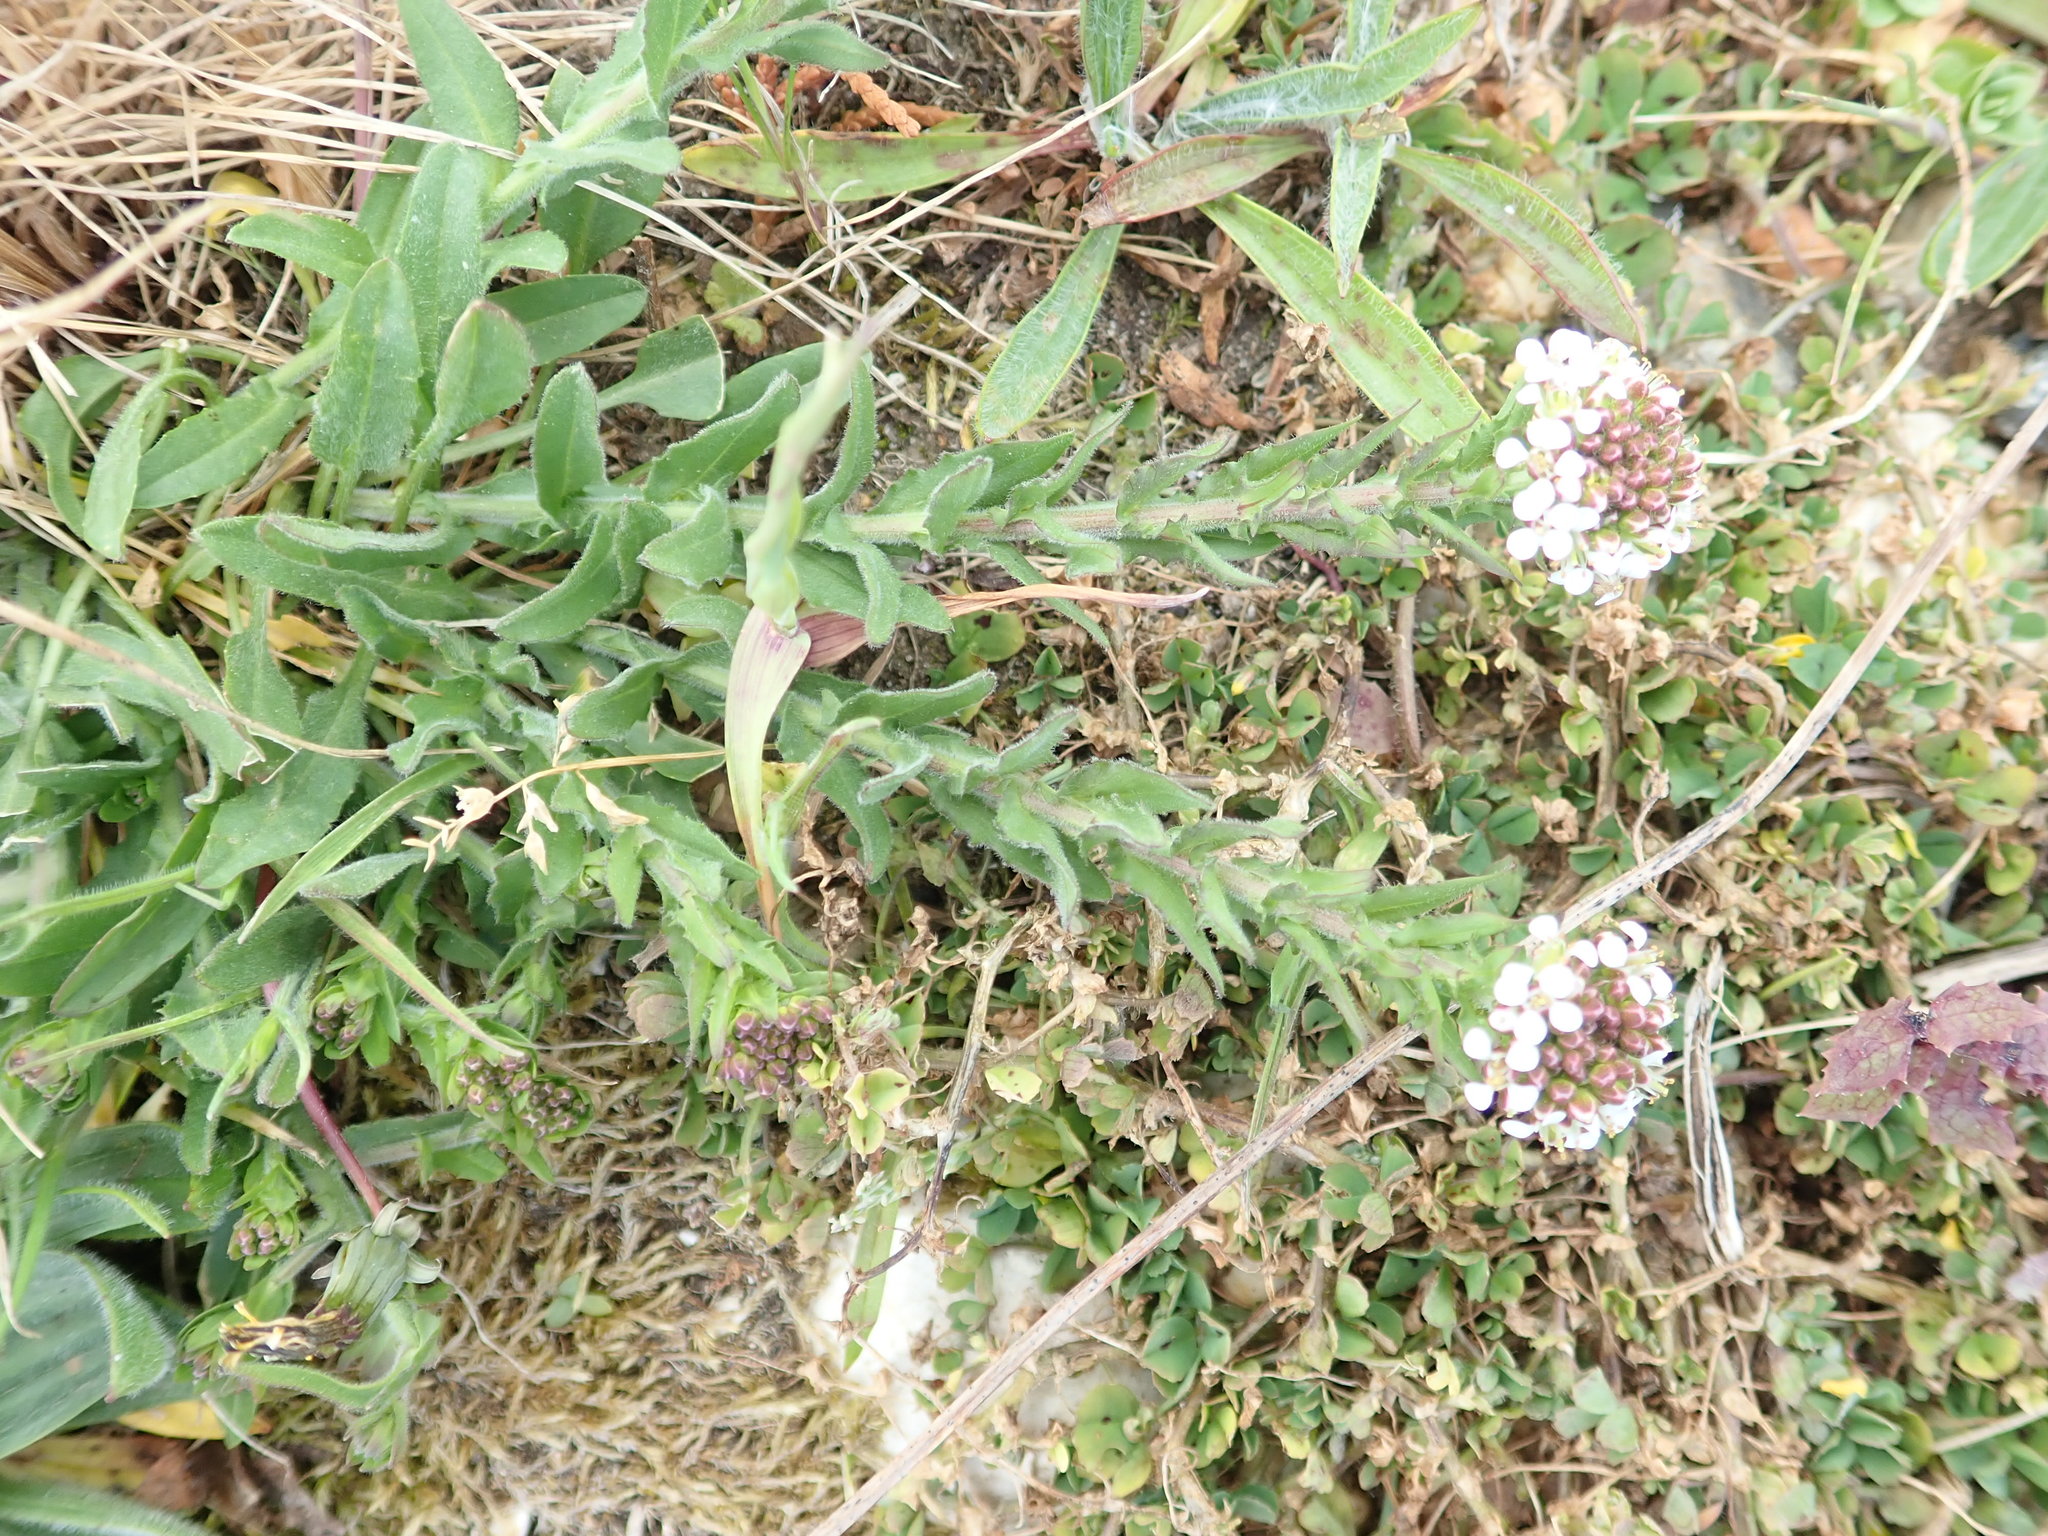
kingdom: Plantae
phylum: Tracheophyta
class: Magnoliopsida
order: Brassicales
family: Brassicaceae
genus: Lepidium
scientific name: Lepidium heterophyllum
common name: Smith's pepperwort
